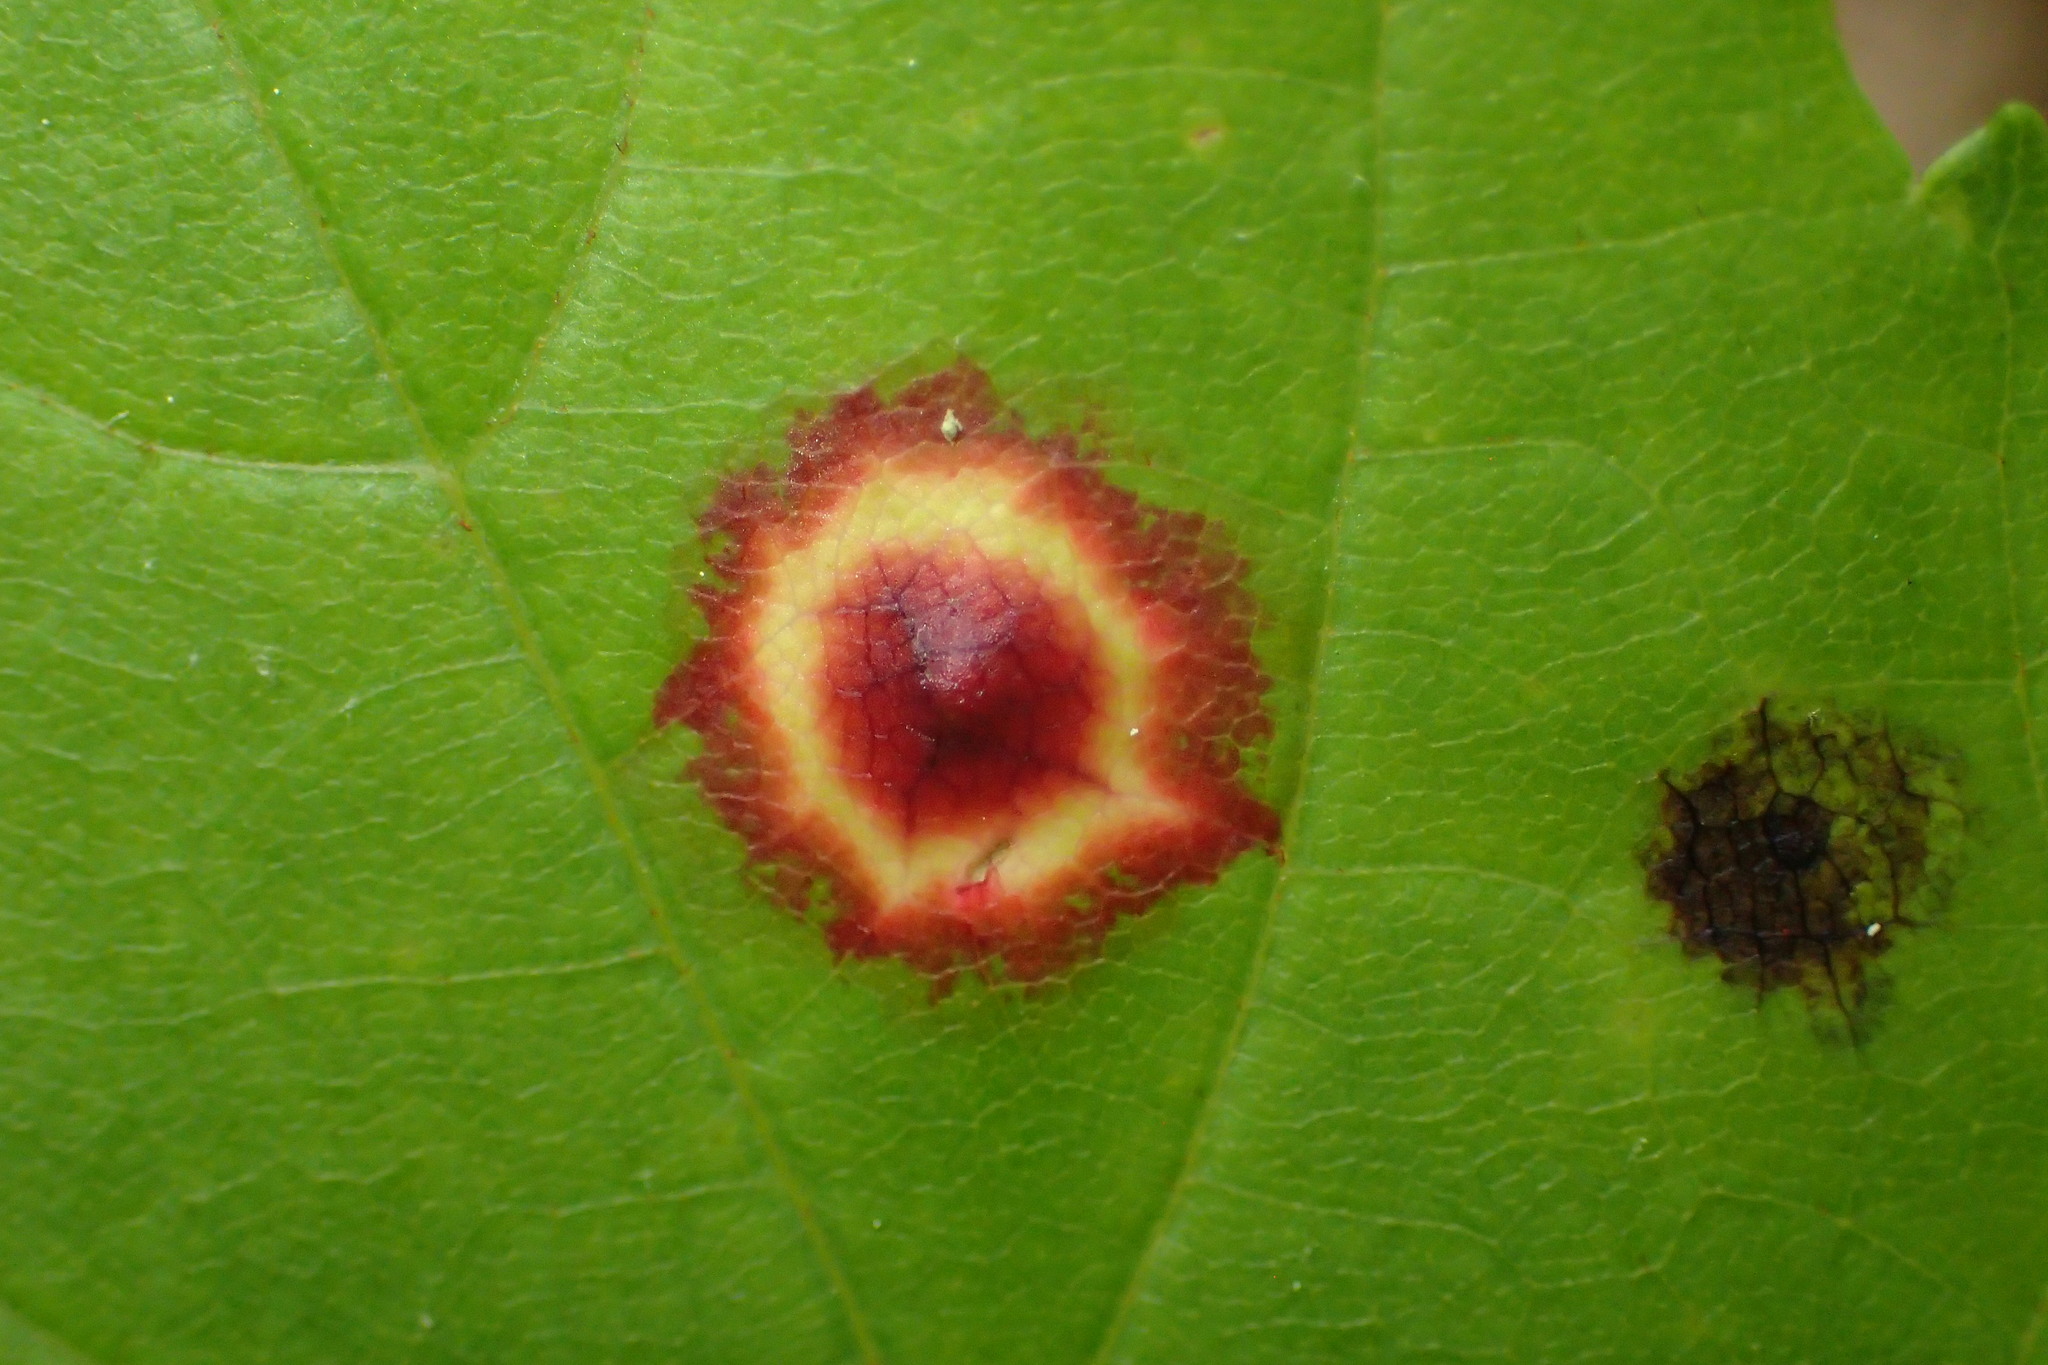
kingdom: Animalia
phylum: Arthropoda
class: Insecta
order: Diptera
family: Cecidomyiidae
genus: Acericecis
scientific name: Acericecis ocellaris
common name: Ocellate gall midge
